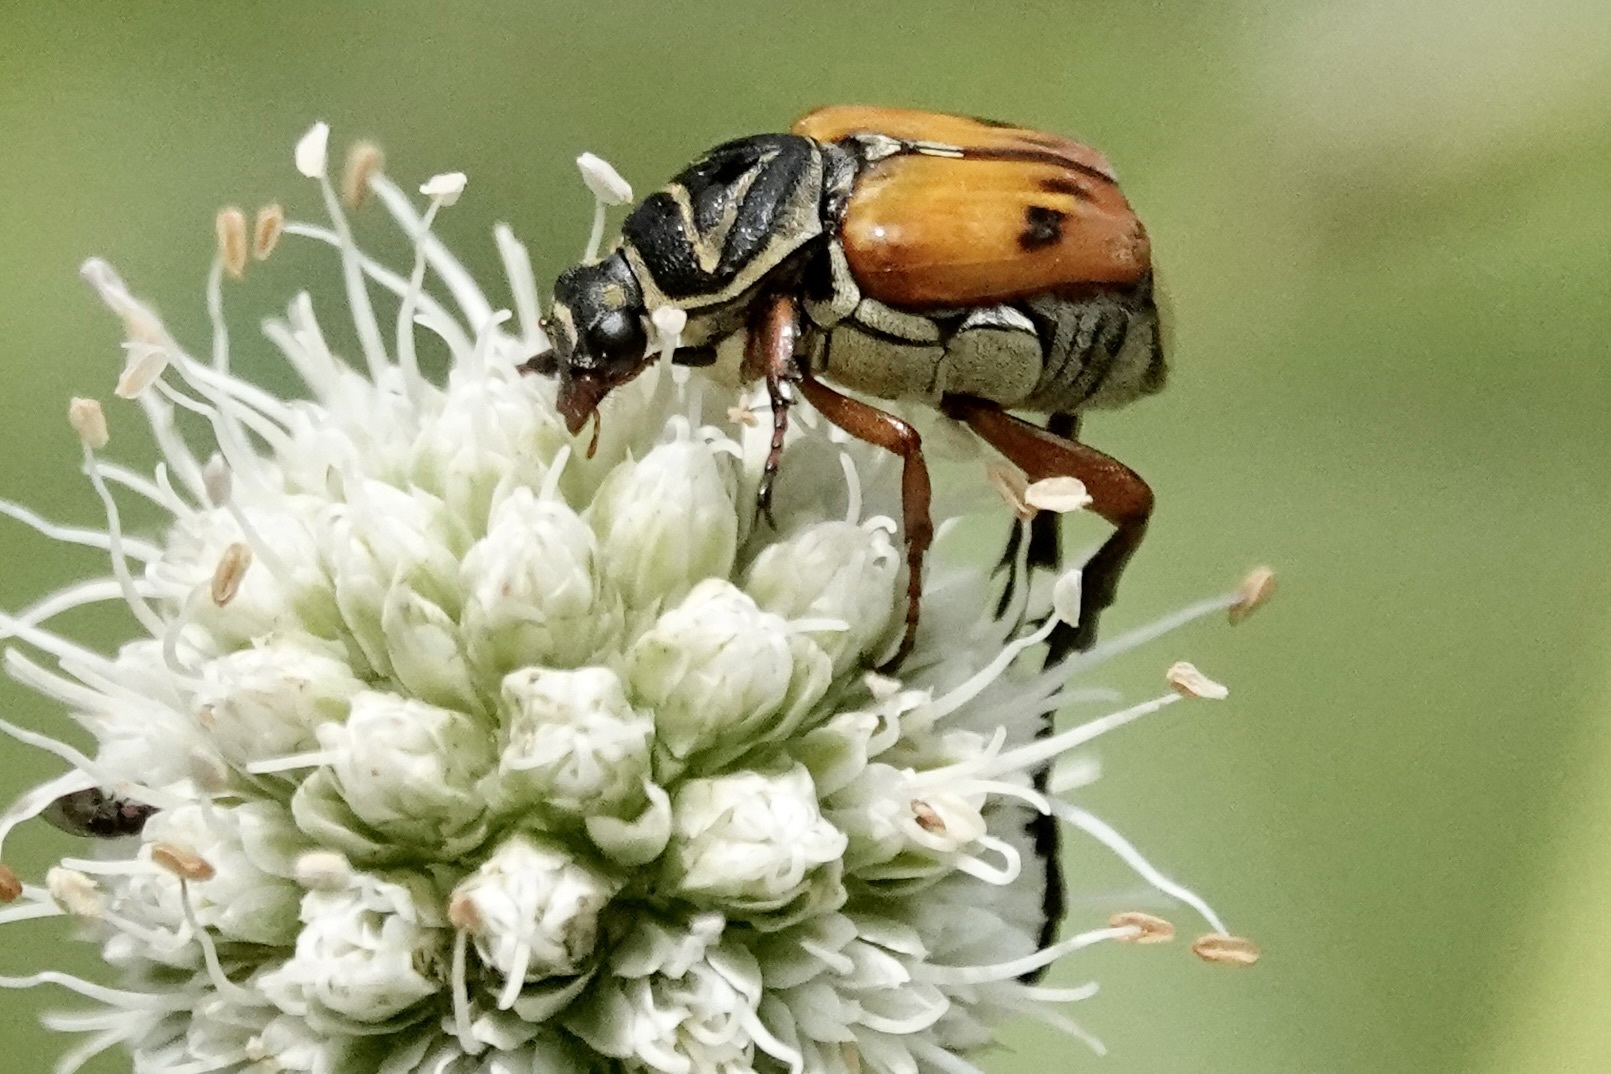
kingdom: Animalia
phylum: Arthropoda
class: Insecta
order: Coleoptera
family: Scarabaeidae
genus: Trigonopeltastes
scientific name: Trigonopeltastes delta
